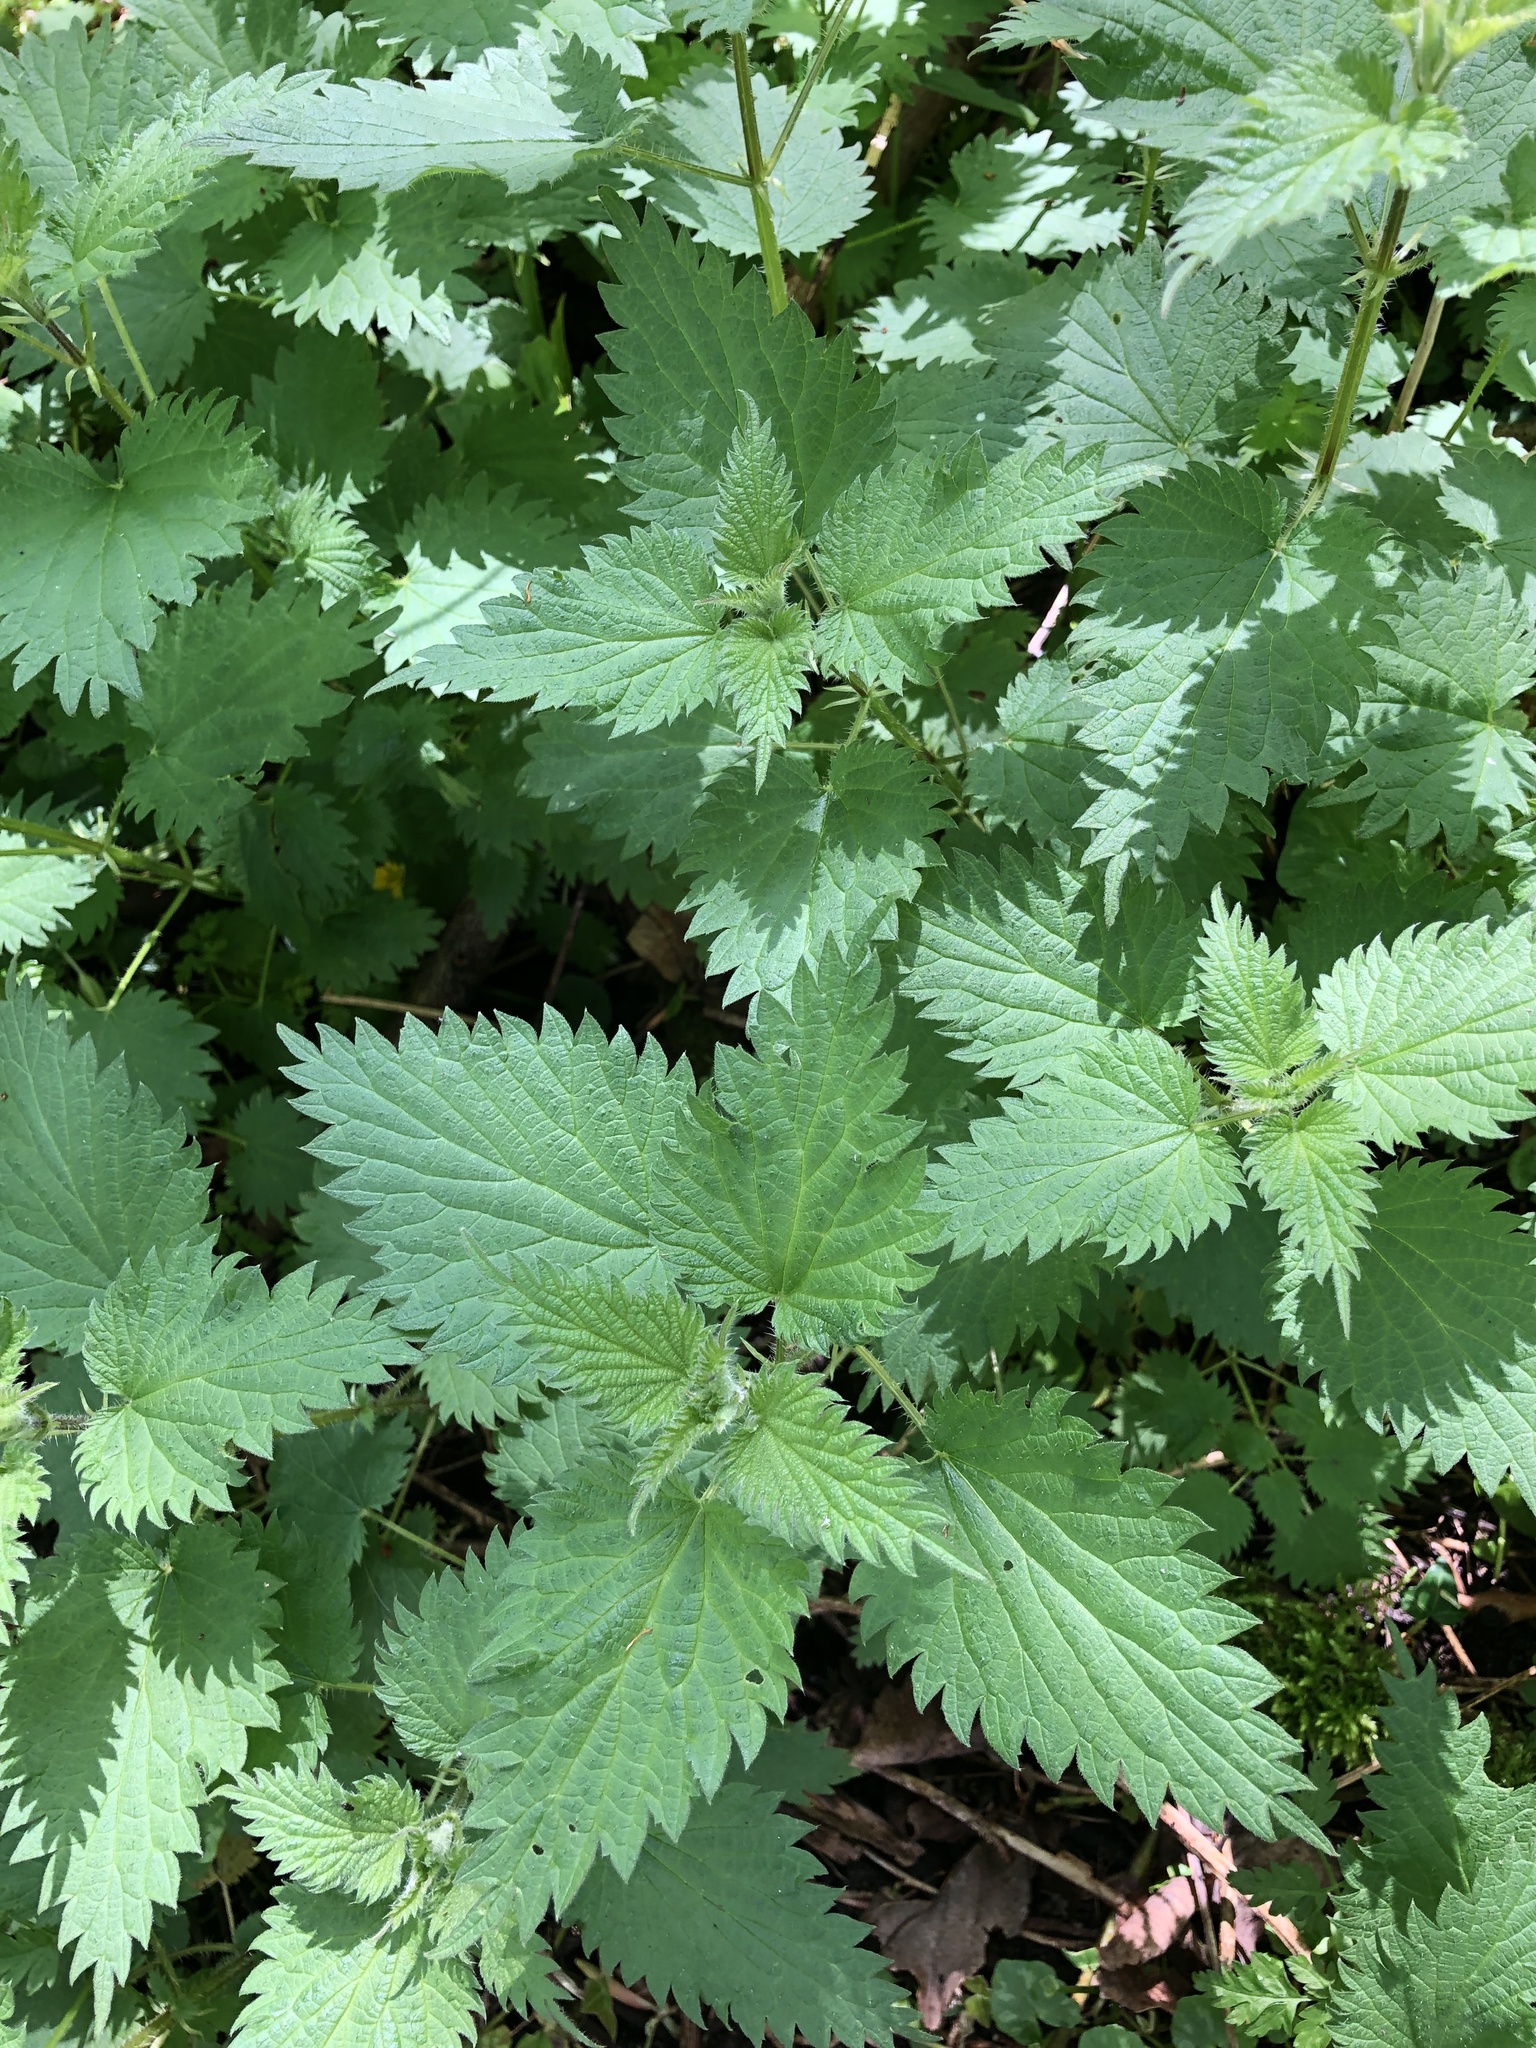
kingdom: Plantae
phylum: Tracheophyta
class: Magnoliopsida
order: Rosales
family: Urticaceae
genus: Urtica
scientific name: Urtica dioica
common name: Common nettle
